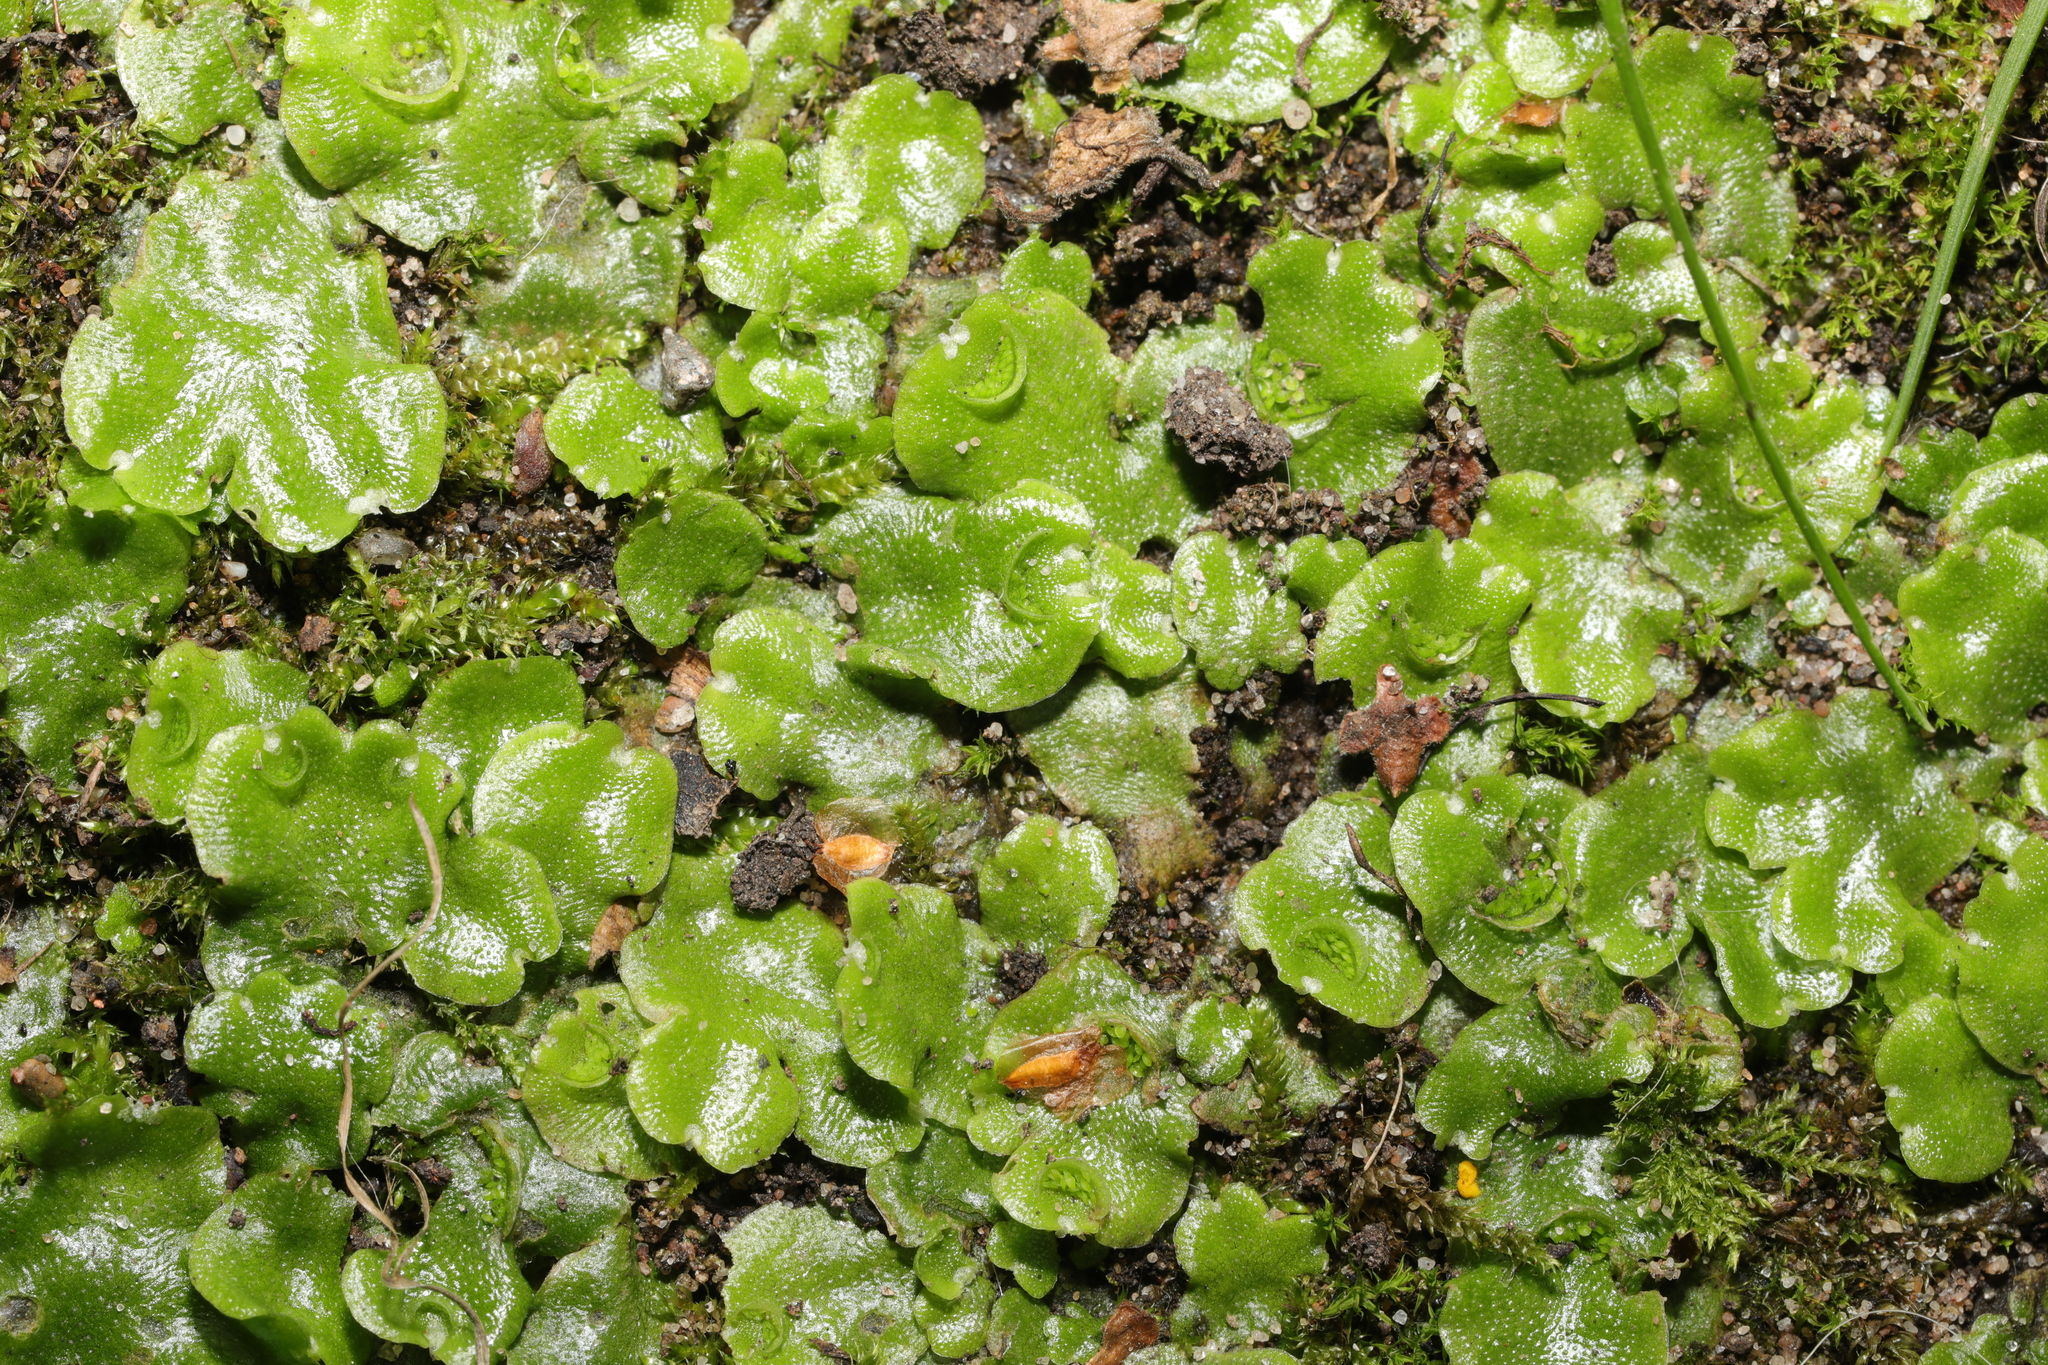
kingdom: Plantae
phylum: Marchantiophyta
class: Marchantiopsida
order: Lunulariales
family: Lunulariaceae
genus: Lunularia
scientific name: Lunularia cruciata
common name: Crescent-cup liverwort
